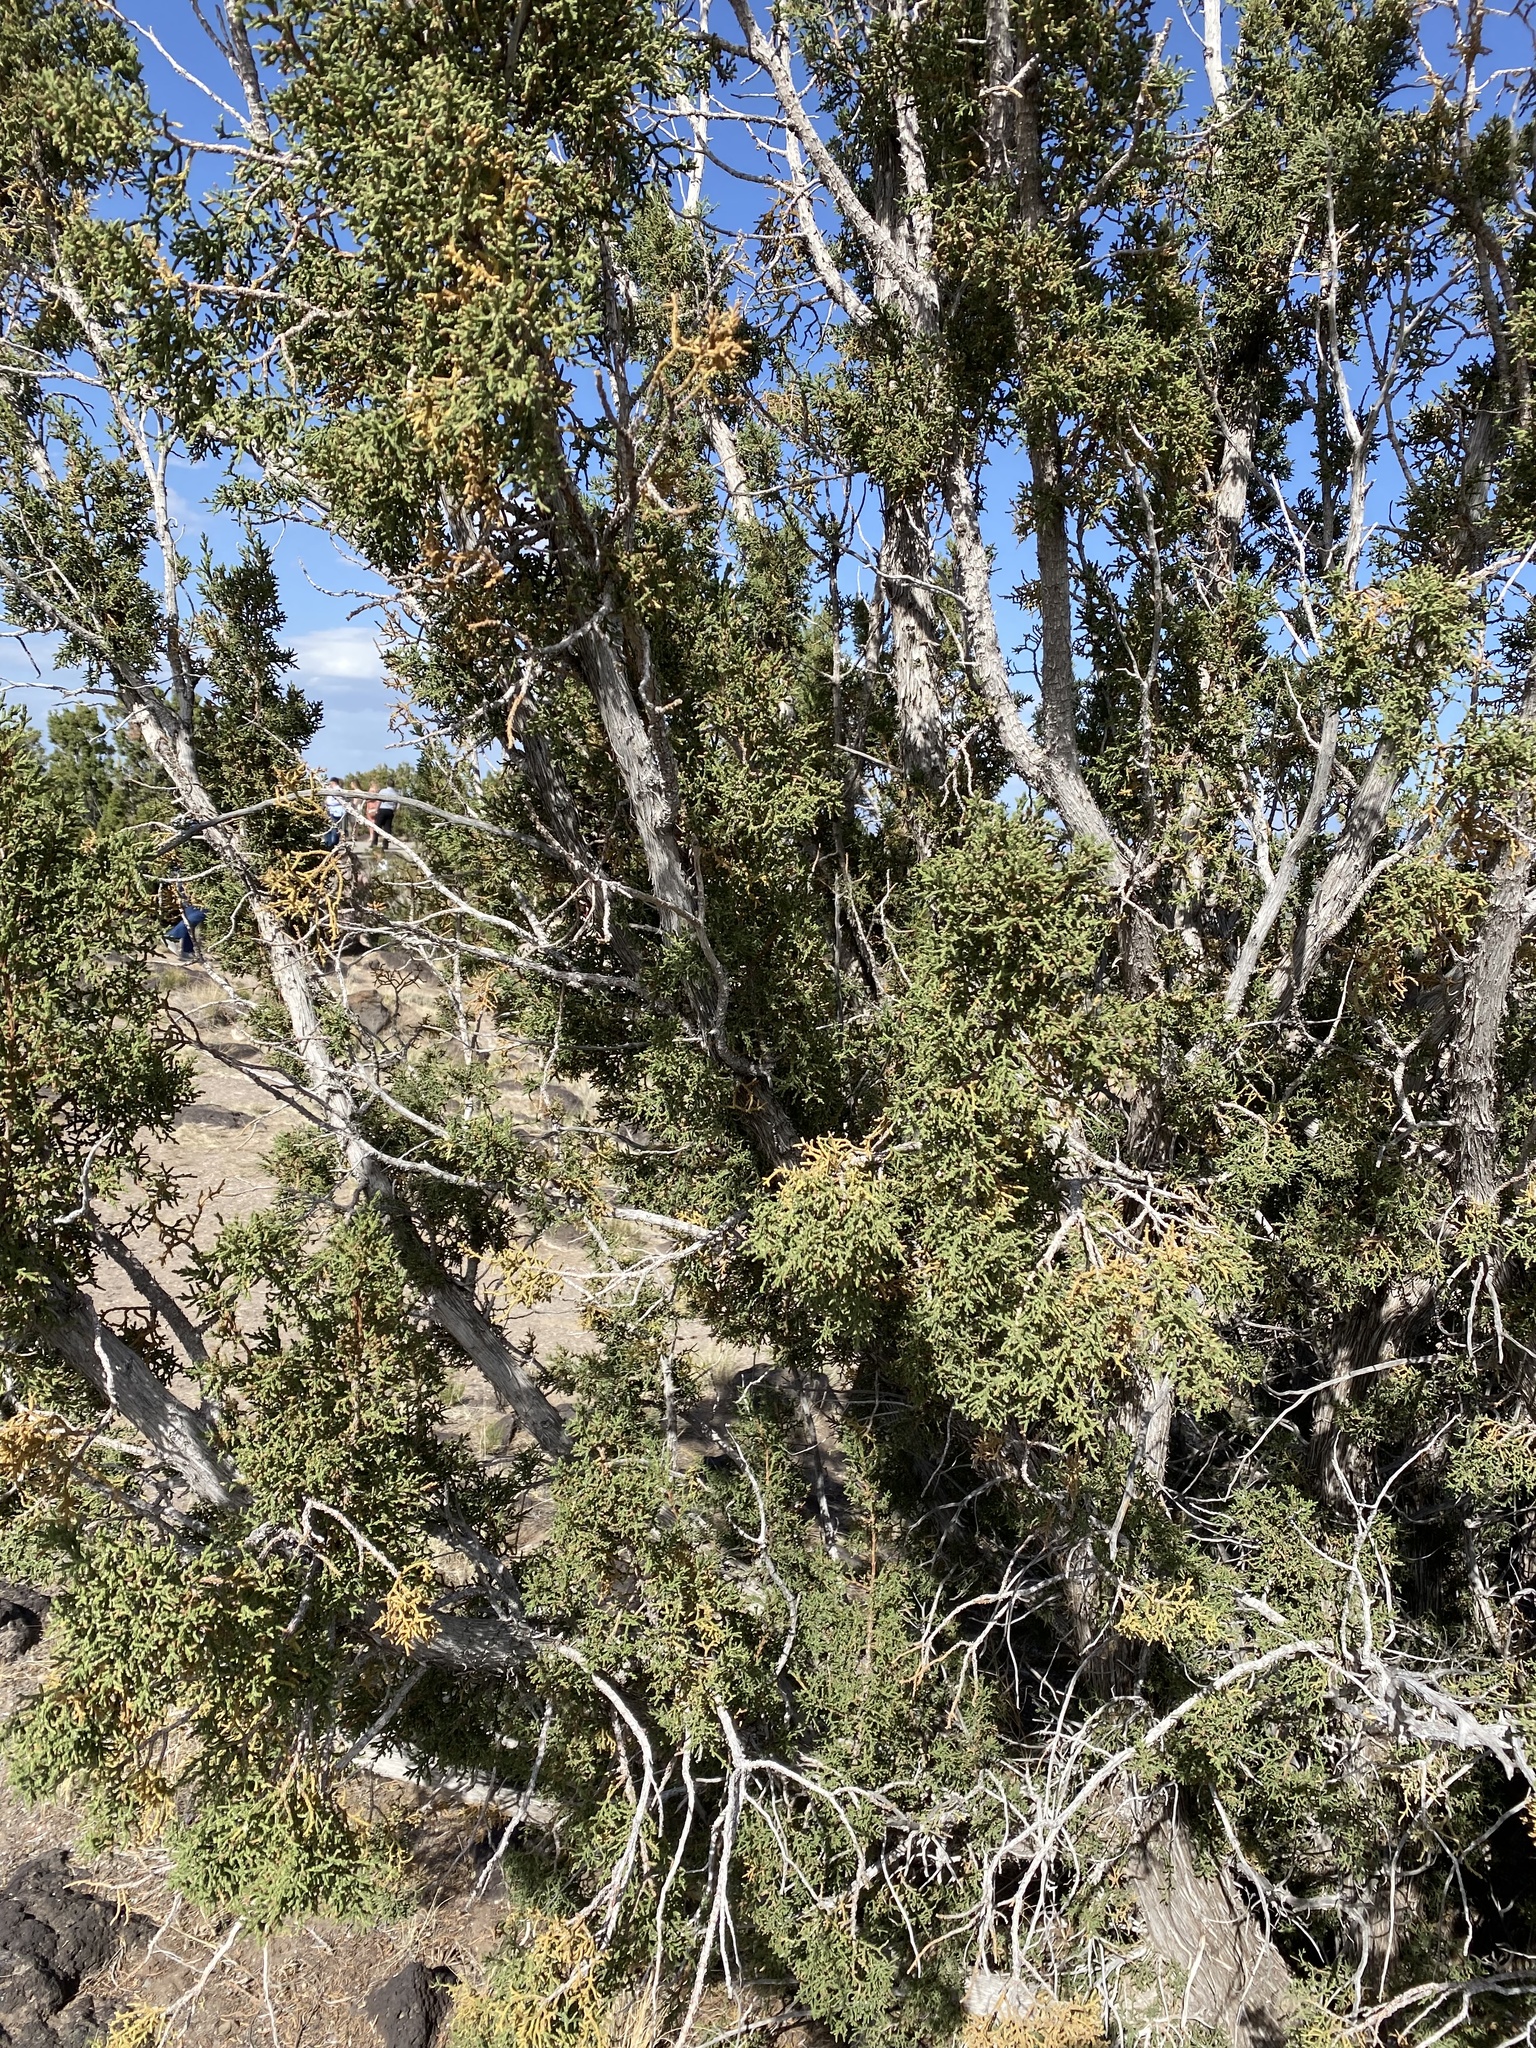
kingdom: Plantae
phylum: Tracheophyta
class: Pinopsida
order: Pinales
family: Cupressaceae
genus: Juniperus
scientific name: Juniperus monosperma
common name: One-seed juniper
